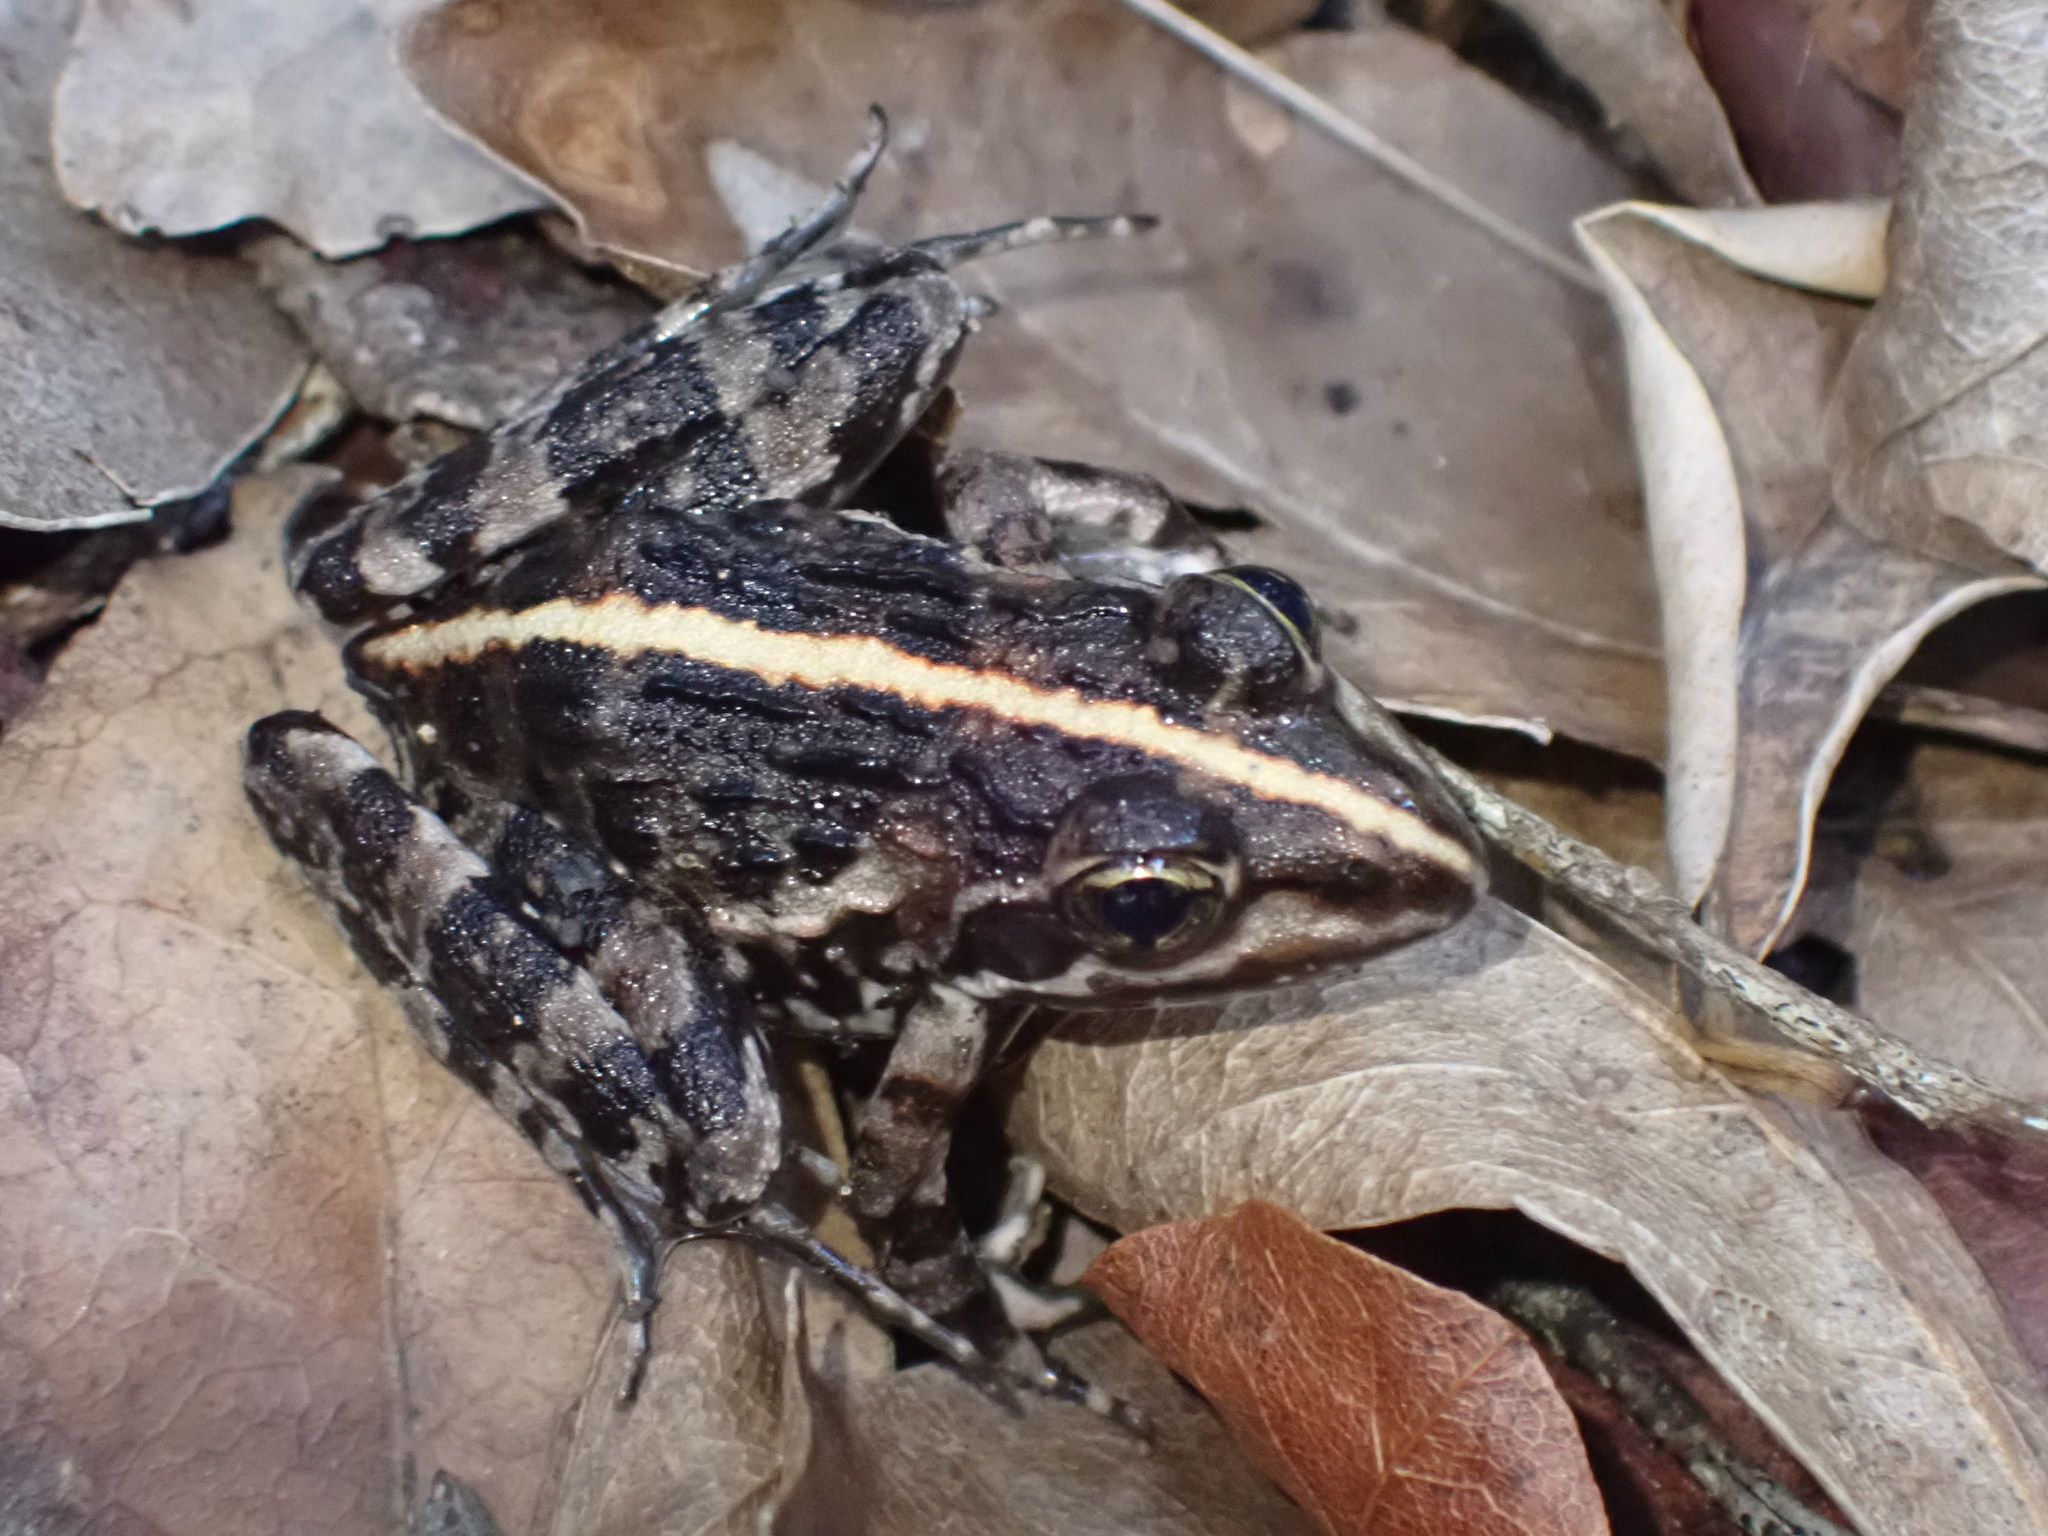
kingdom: Animalia
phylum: Chordata
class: Amphibia
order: Anura
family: Pyxicephalidae
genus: Amietia
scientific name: Amietia fuscigula
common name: Cape rana
